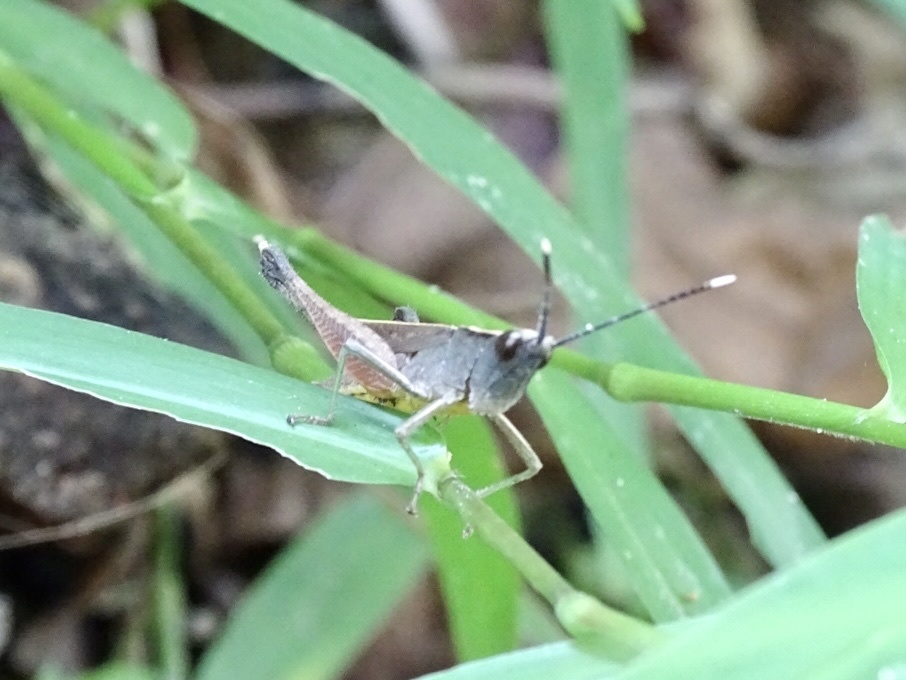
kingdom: Animalia
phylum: Arthropoda
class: Insecta
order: Orthoptera
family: Acrididae
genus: Phlaeoba
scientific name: Phlaeoba antennata
